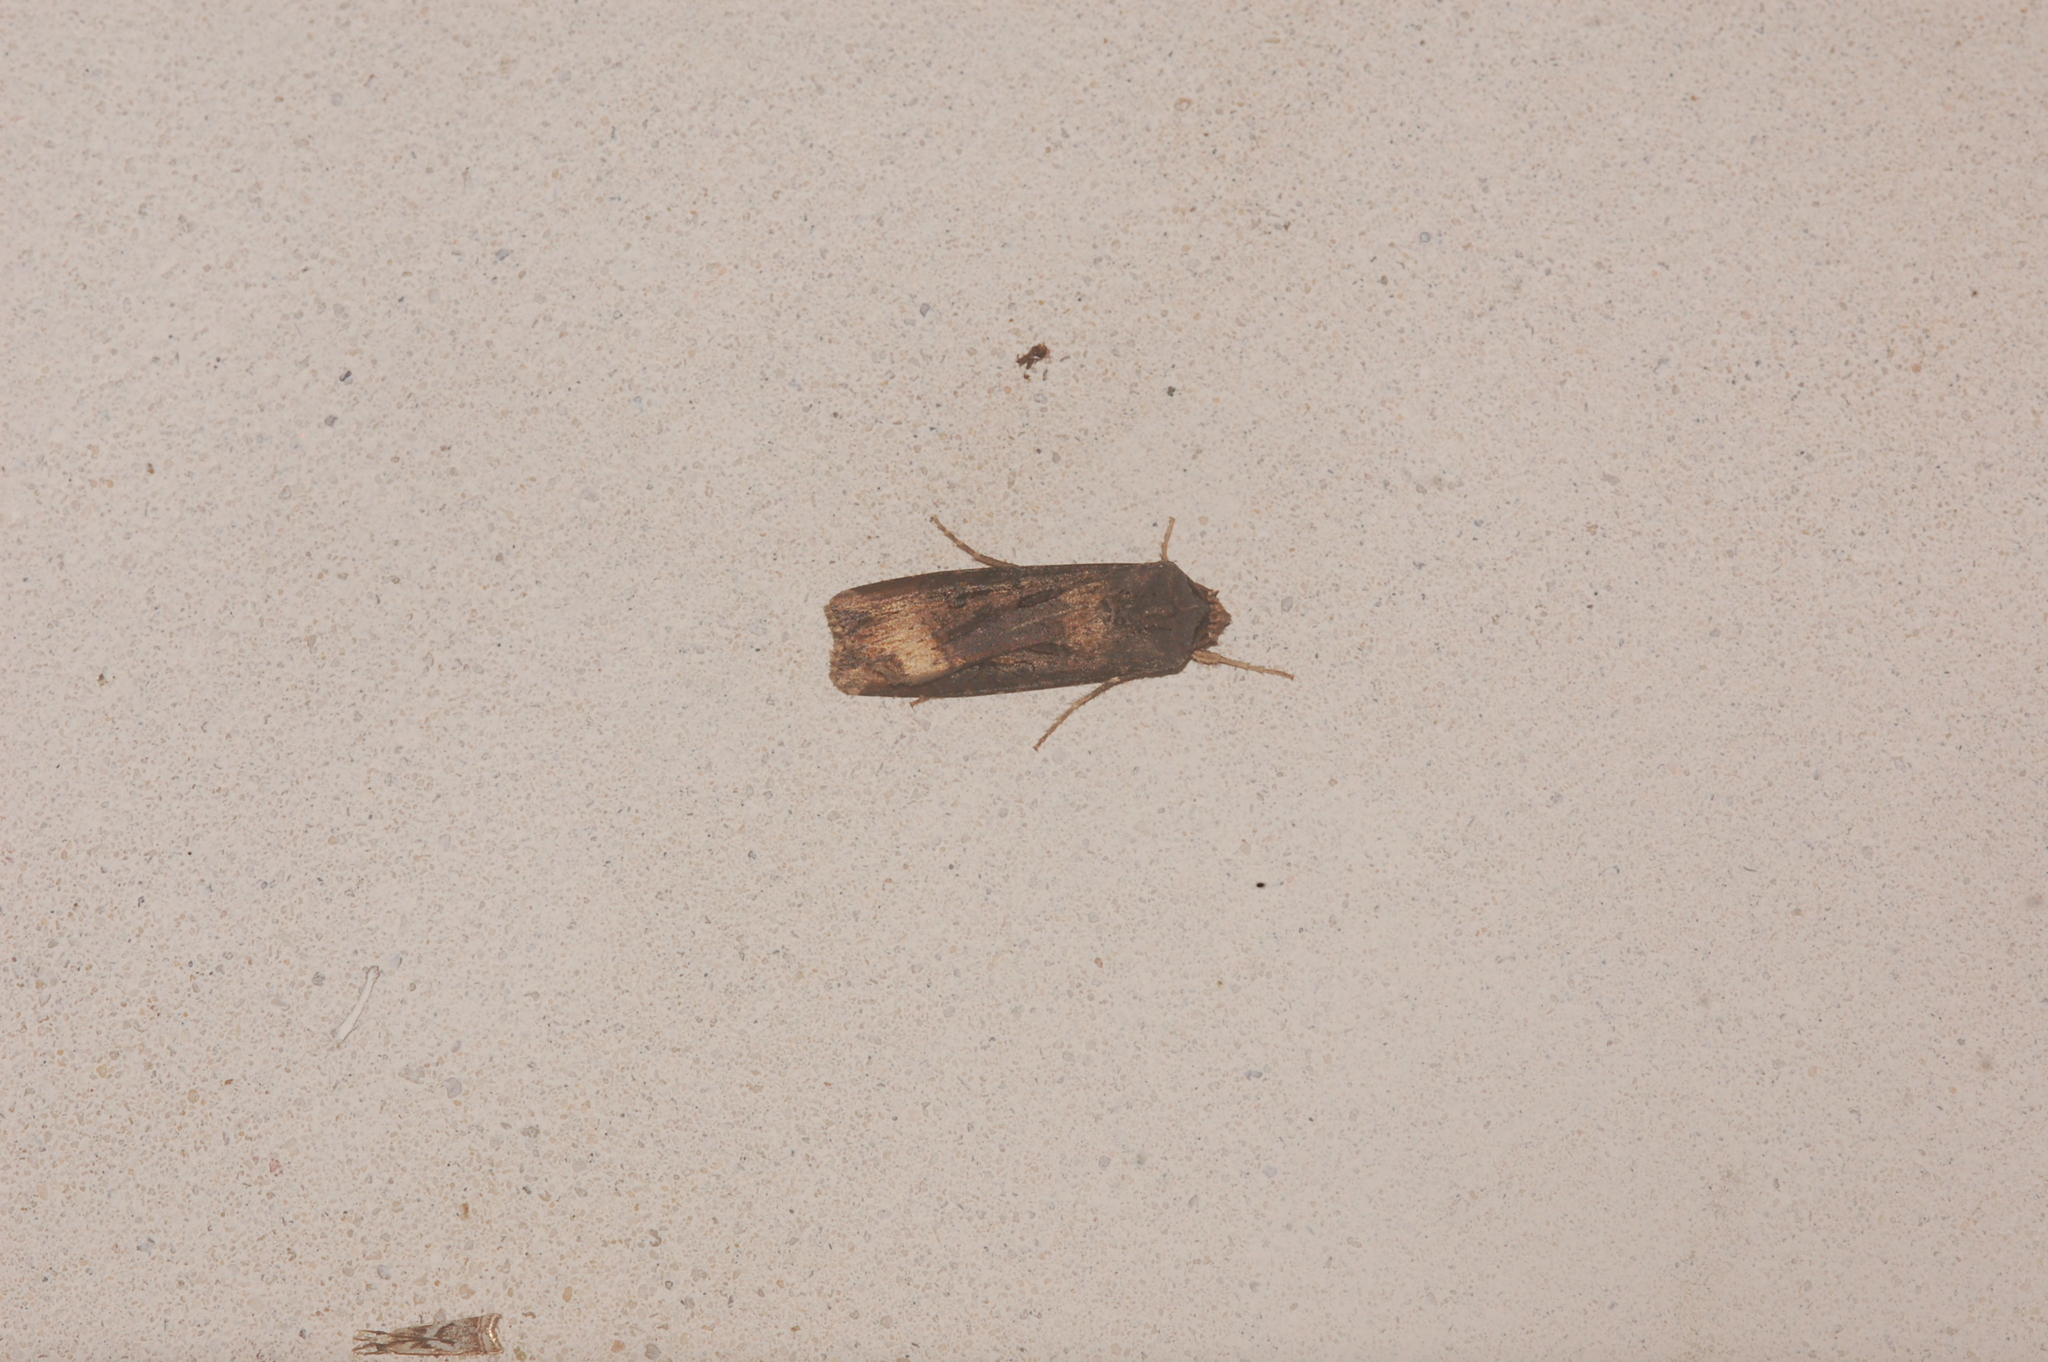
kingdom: Animalia
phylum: Arthropoda
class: Insecta
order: Lepidoptera
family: Noctuidae
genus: Agrotis
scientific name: Agrotis ipsilon
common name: Dark sword-grass
